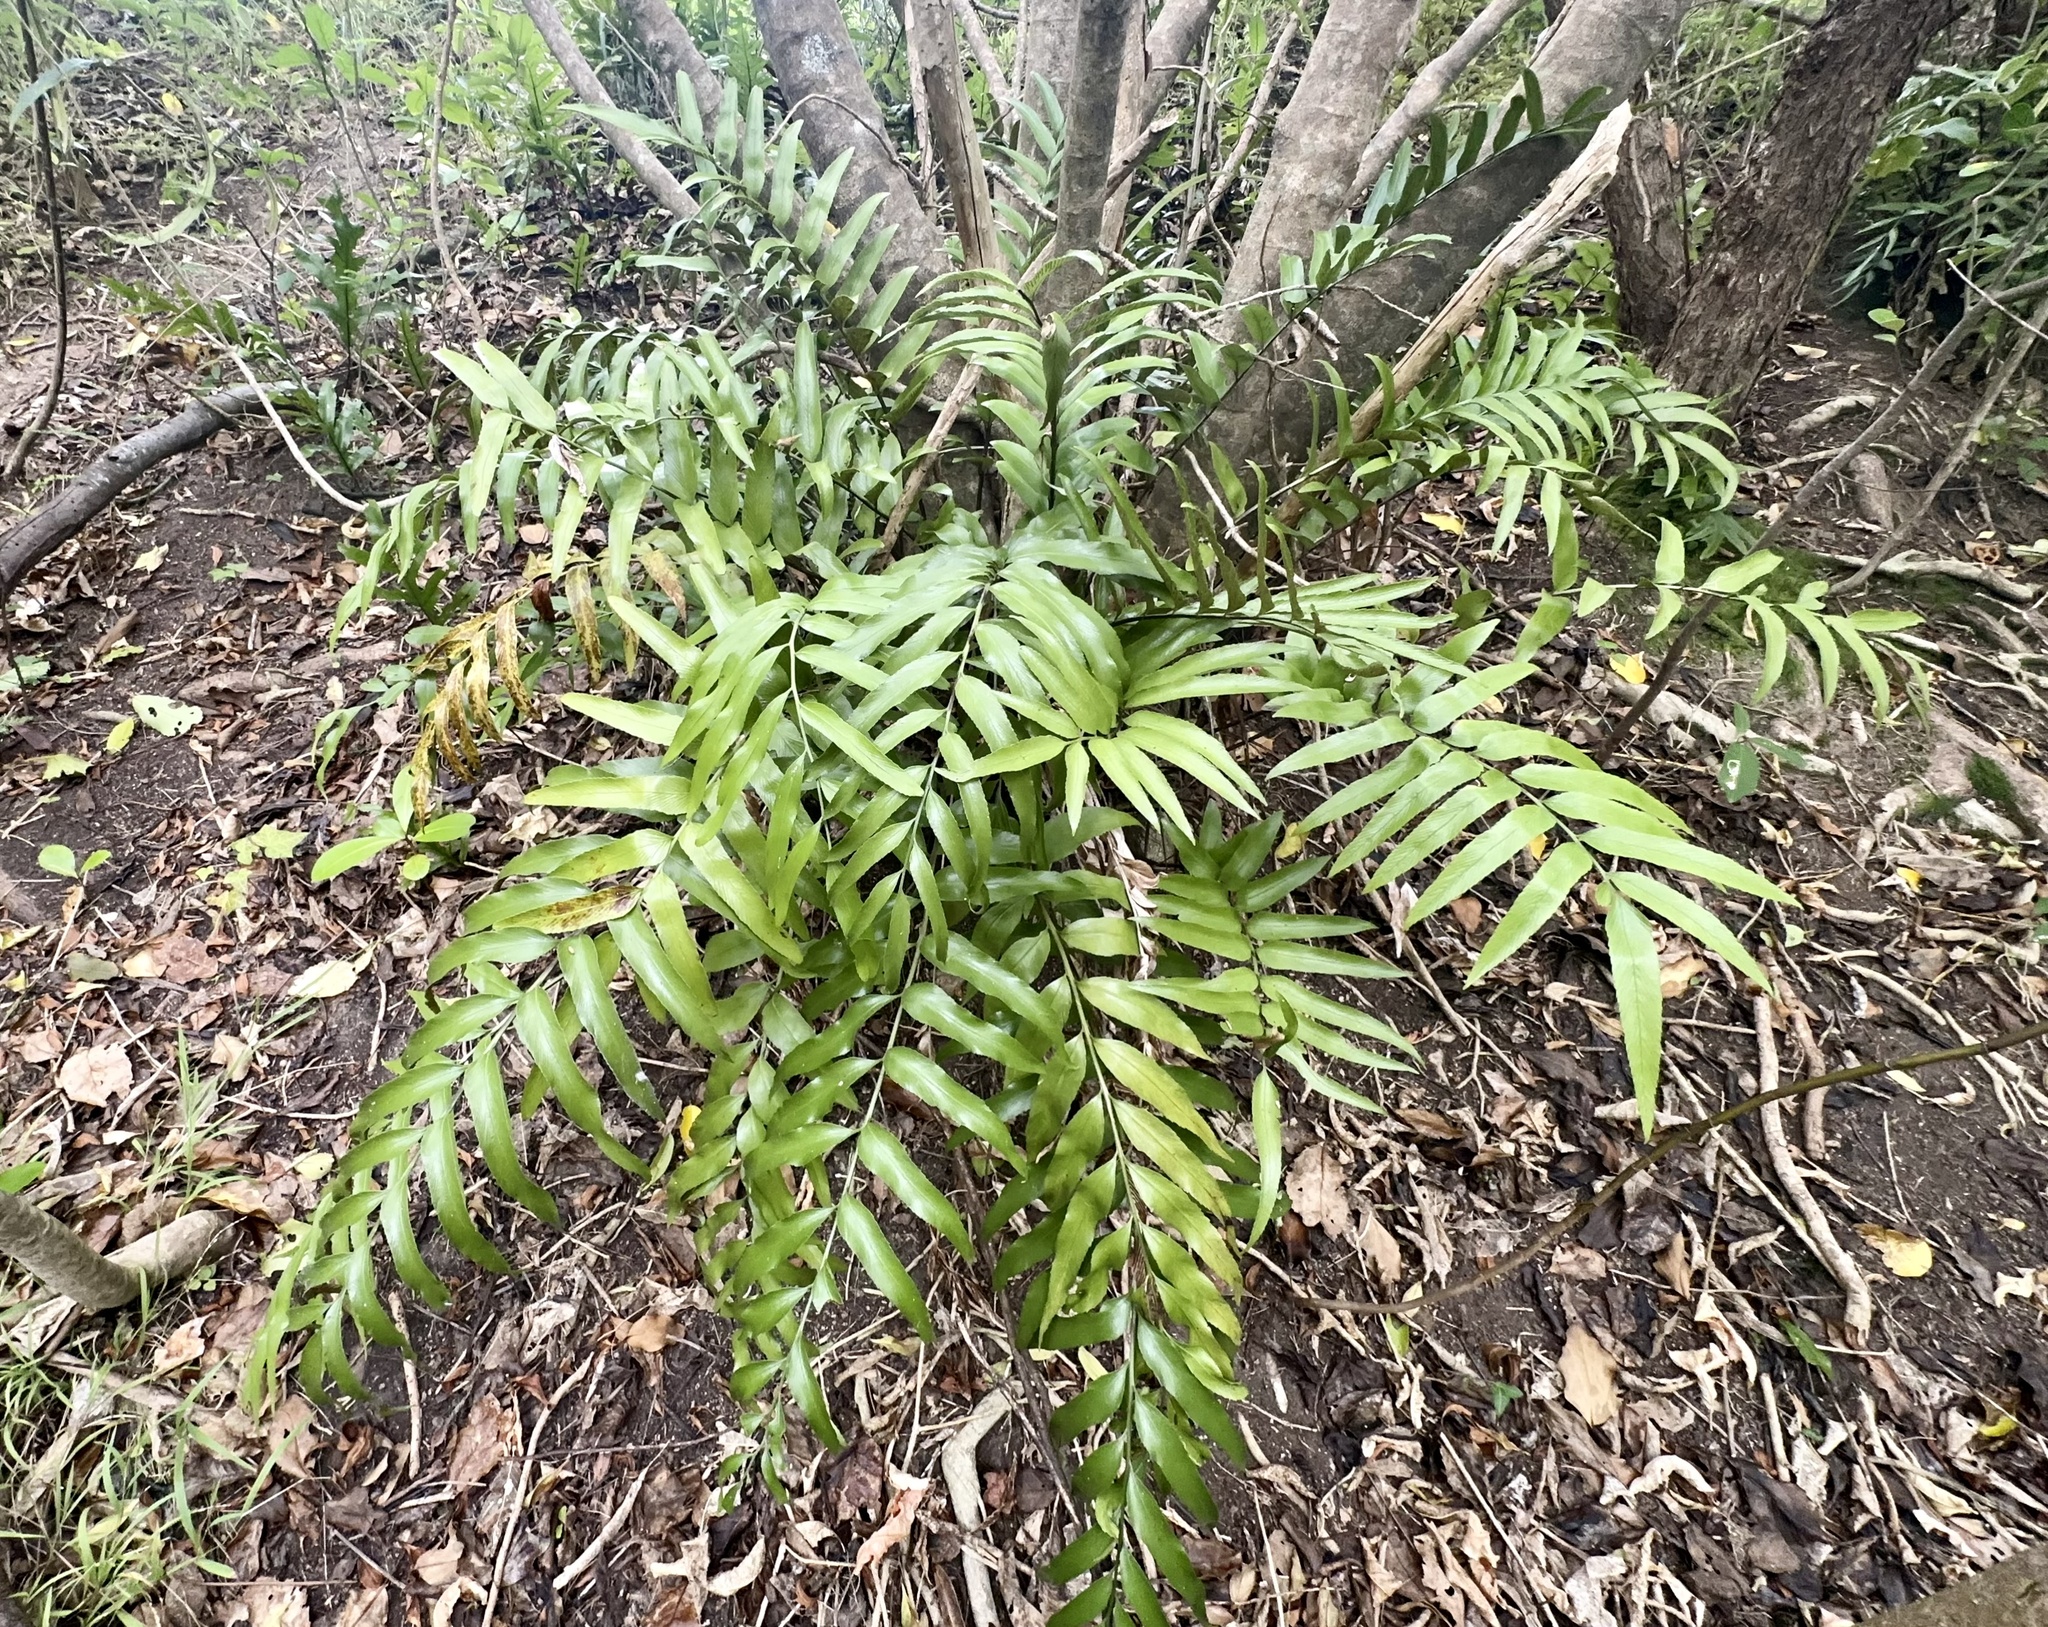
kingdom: Plantae
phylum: Tracheophyta
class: Polypodiopsida
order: Polypodiales
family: Aspleniaceae
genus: Asplenium
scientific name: Asplenium oblongifolium
